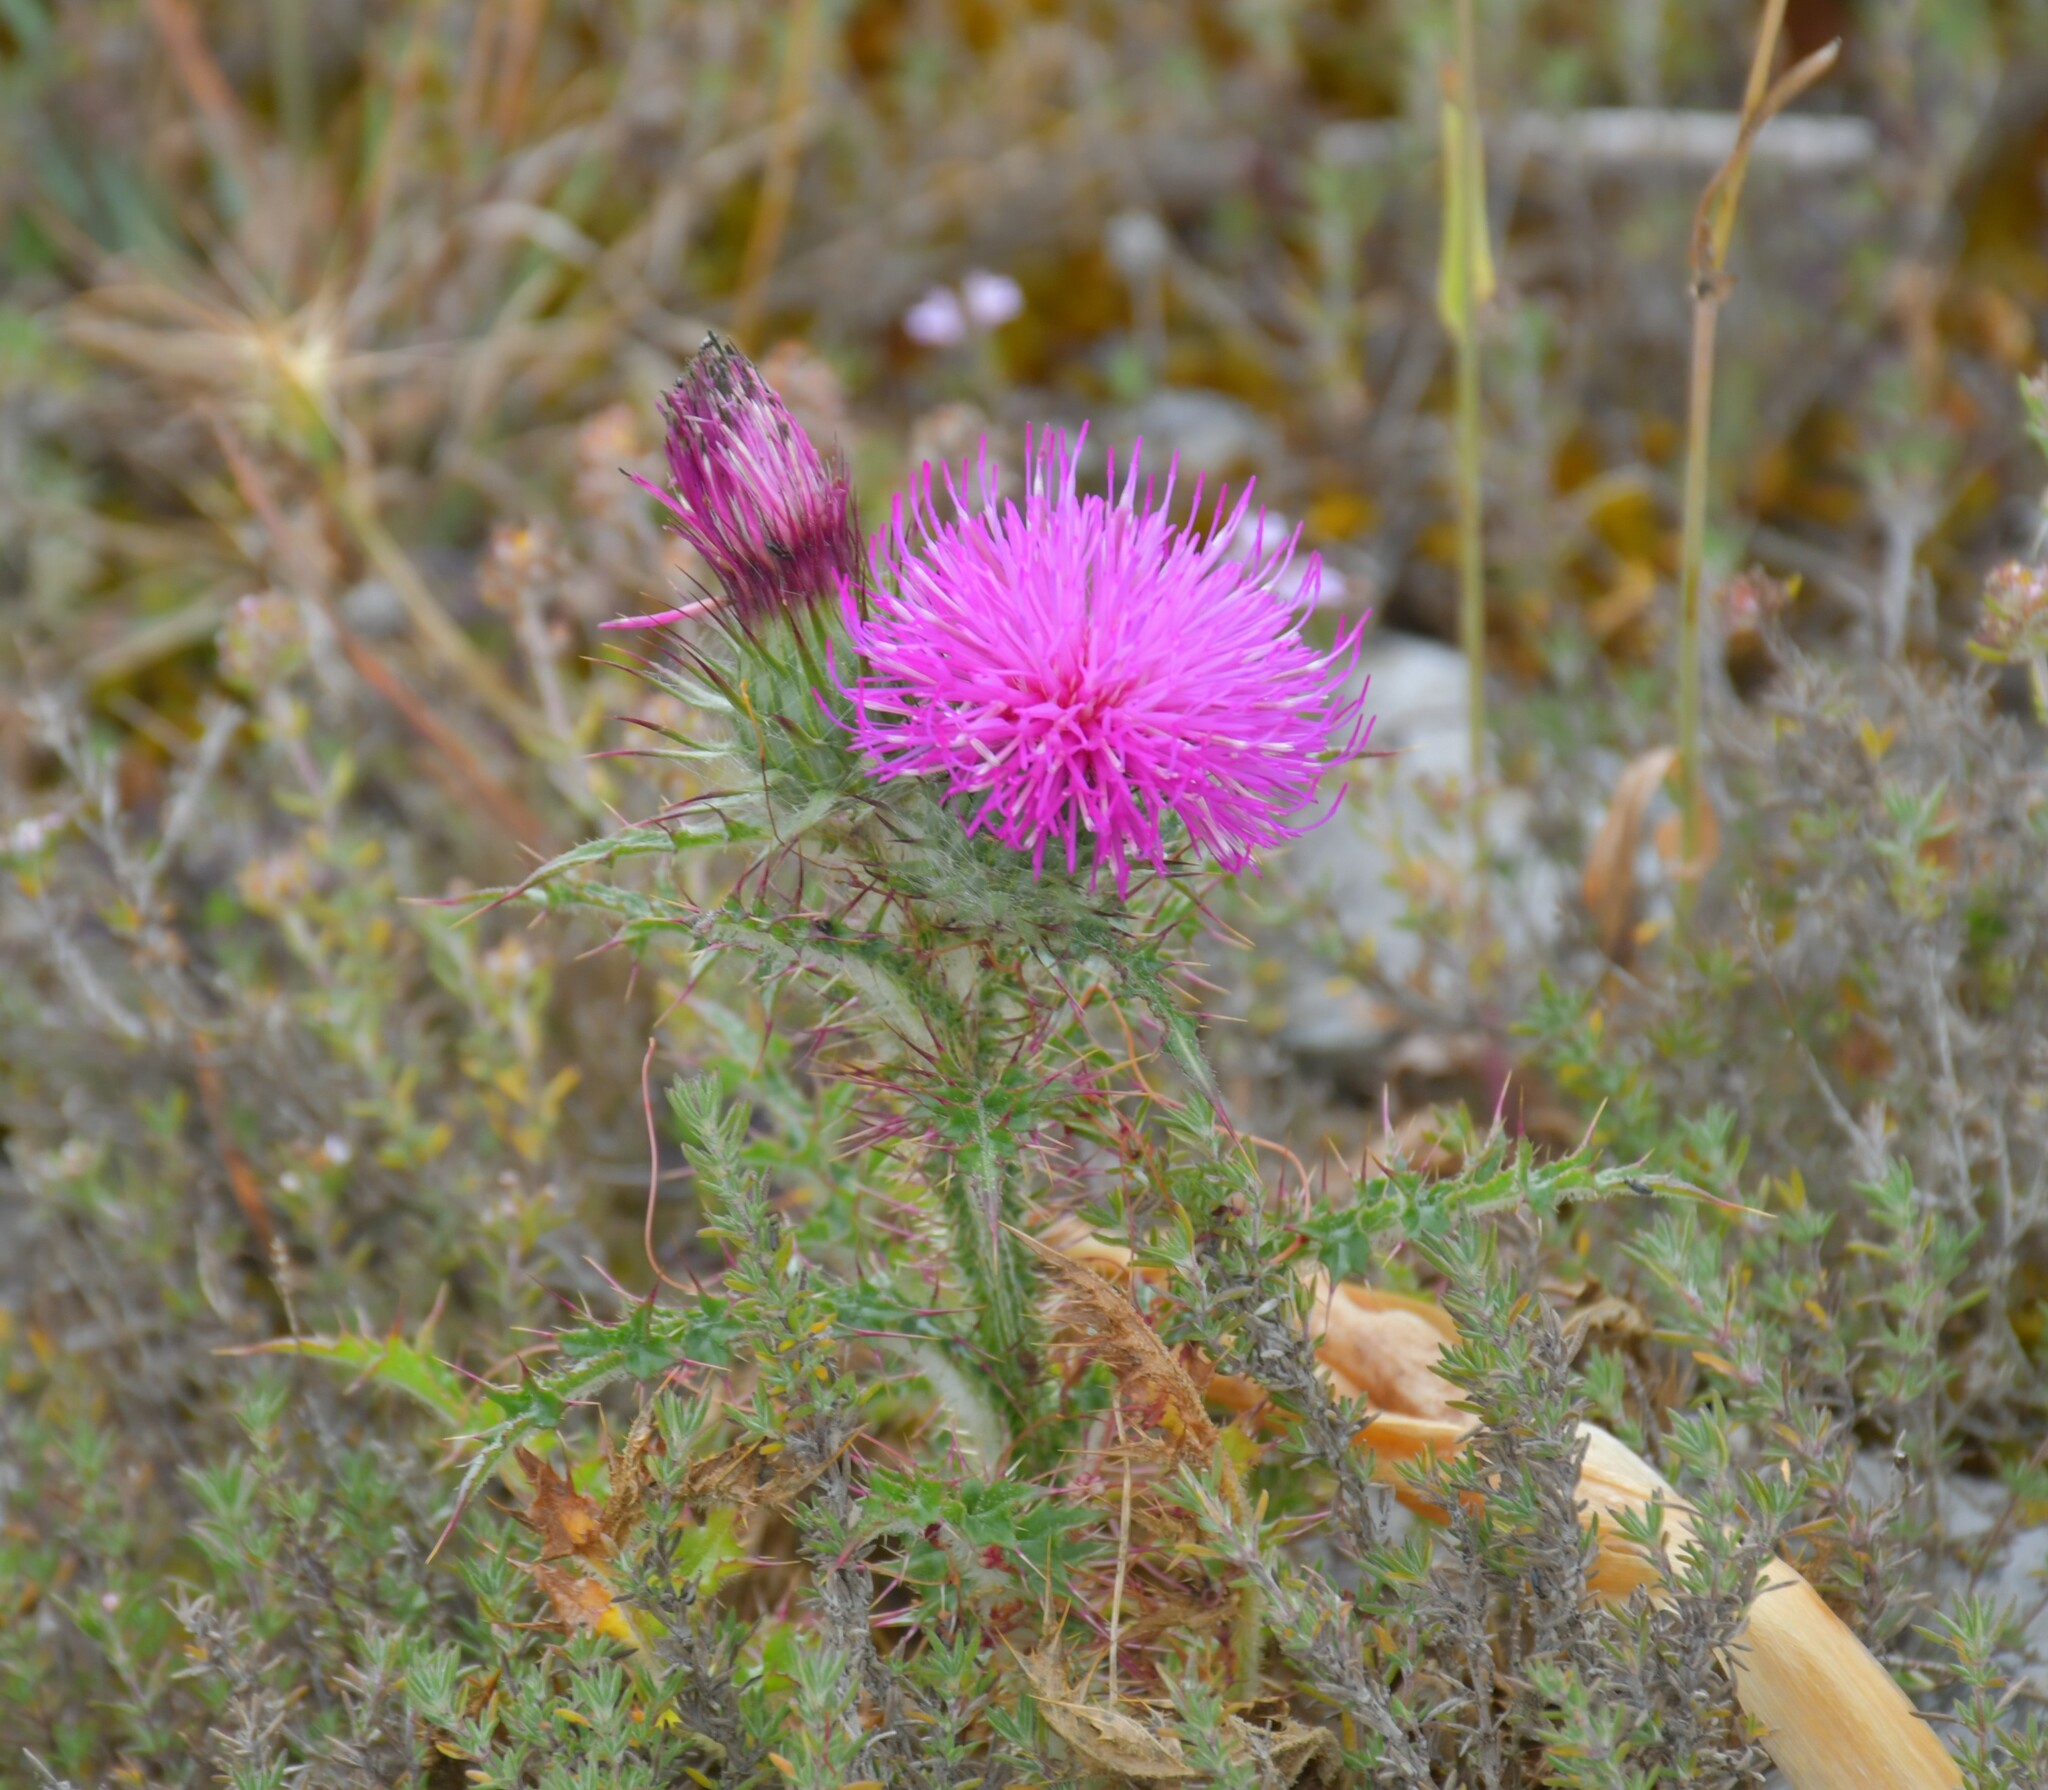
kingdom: Plantae
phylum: Tracheophyta
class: Magnoliopsida
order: Asterales
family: Asteraceae
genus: Carduus
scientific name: Carduus broteroi
